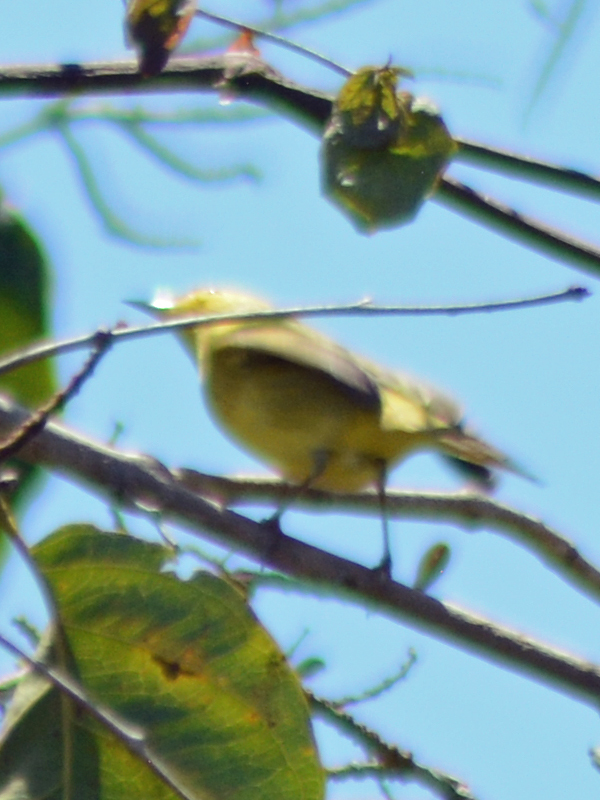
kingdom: Animalia
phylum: Chordata
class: Aves
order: Passeriformes
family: Parulidae
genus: Setophaga
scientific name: Setophaga petechia
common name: Yellow warbler
